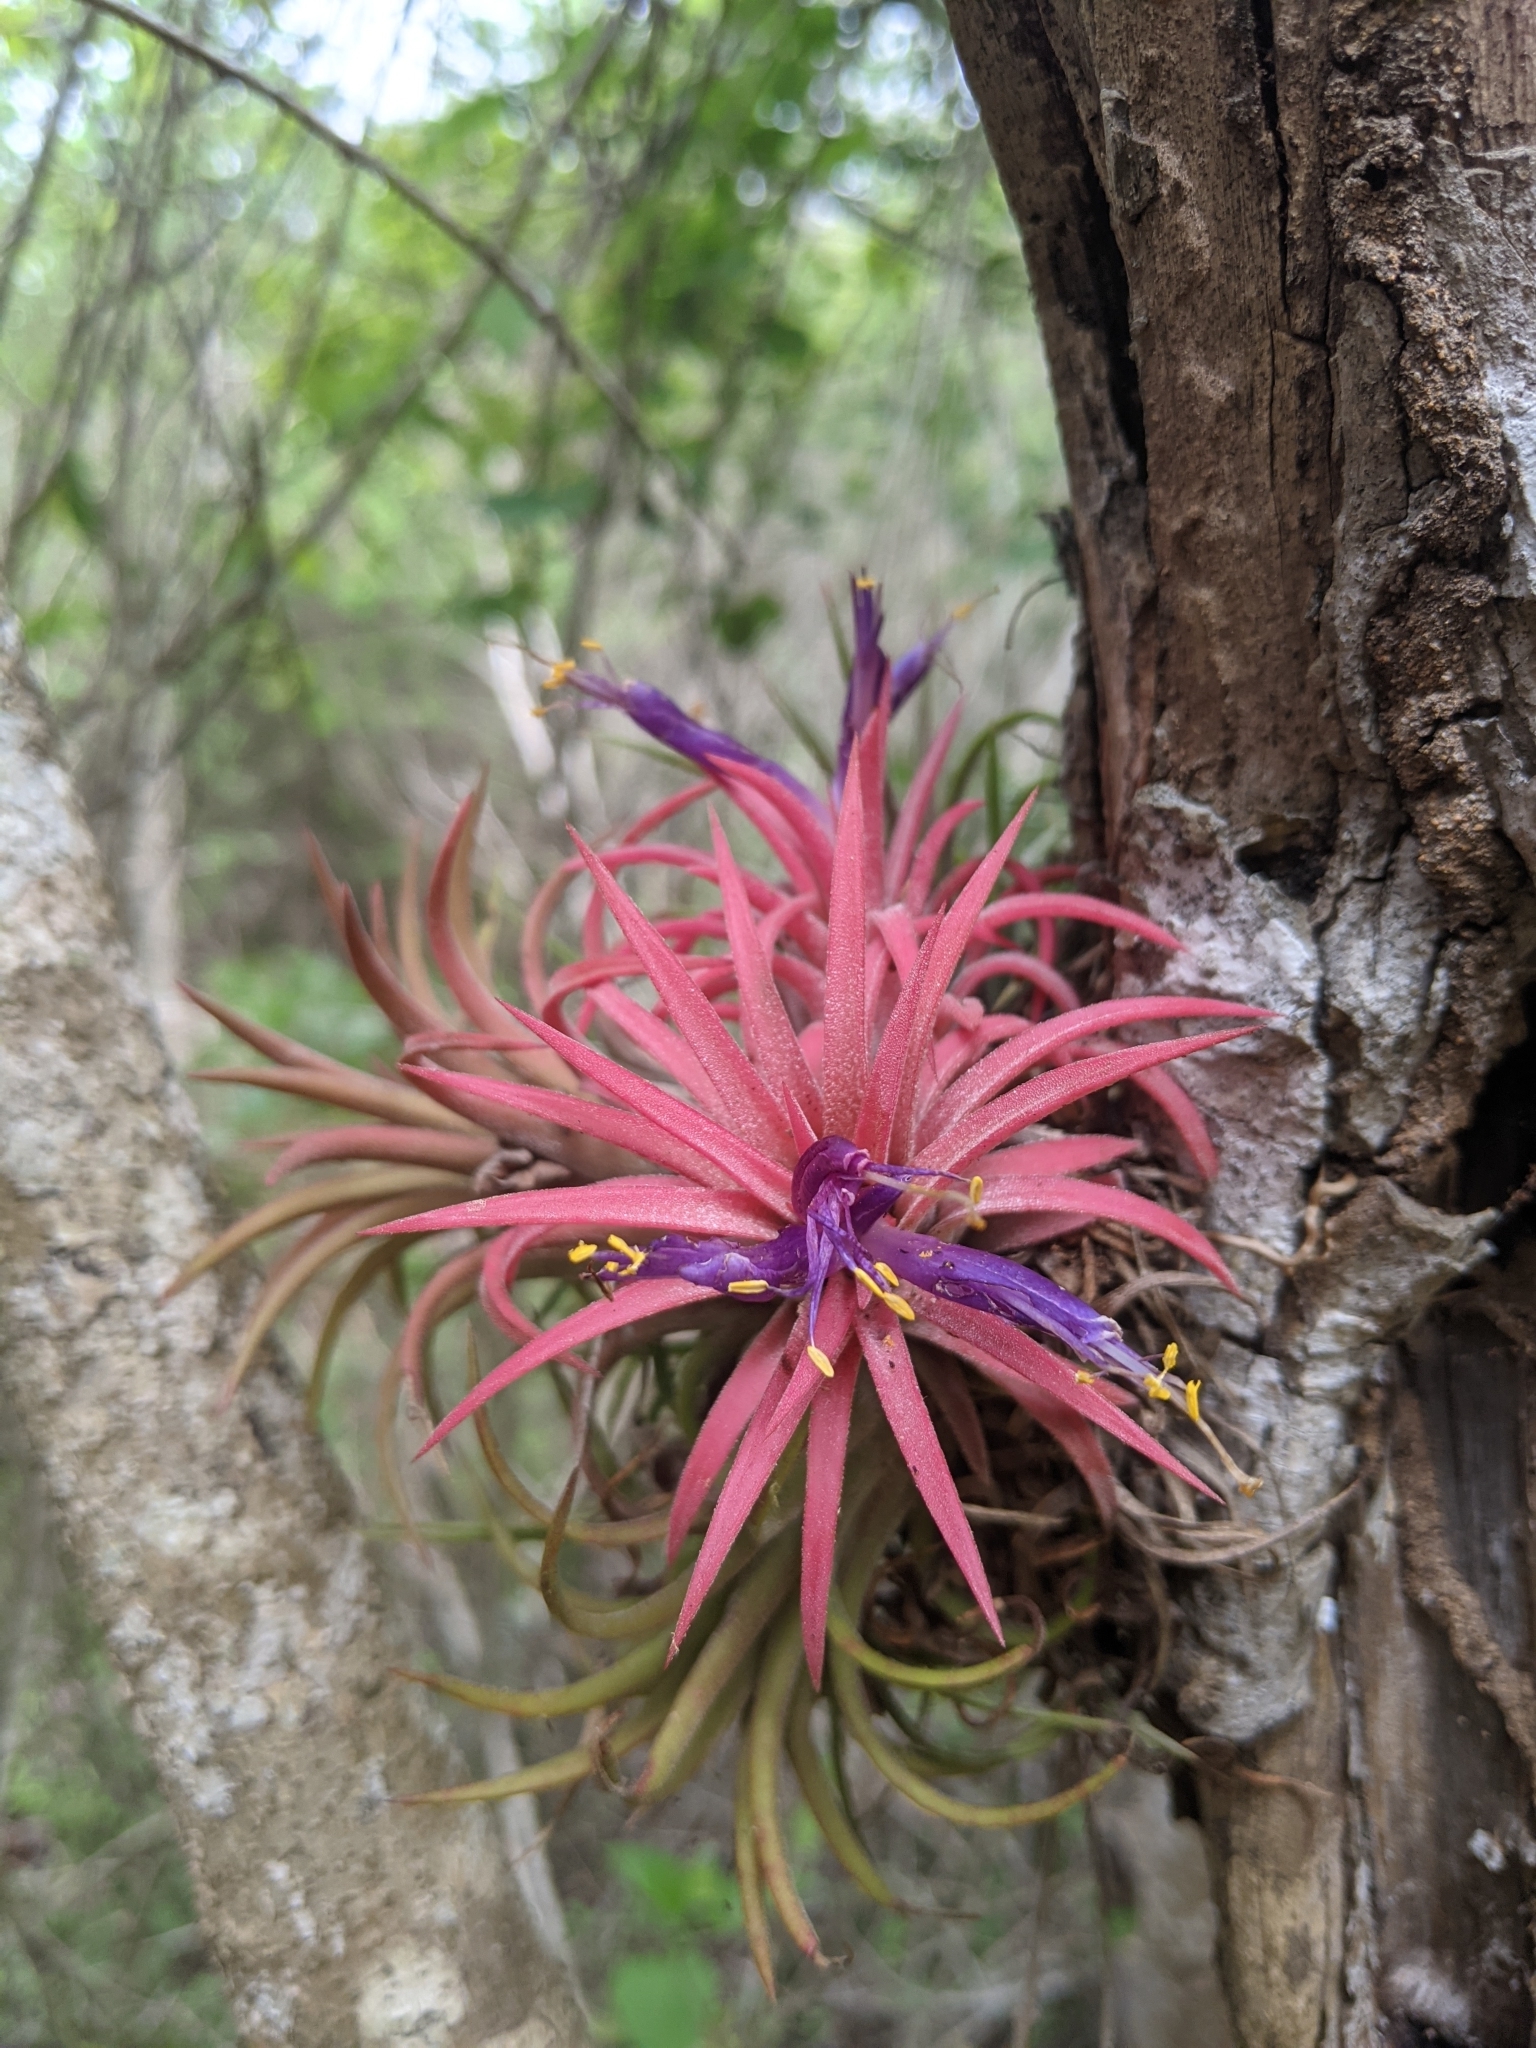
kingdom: Plantae
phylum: Tracheophyta
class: Liliopsida
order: Poales
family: Bromeliaceae
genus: Tillandsia
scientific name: Tillandsia ionantha
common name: Sky plant
